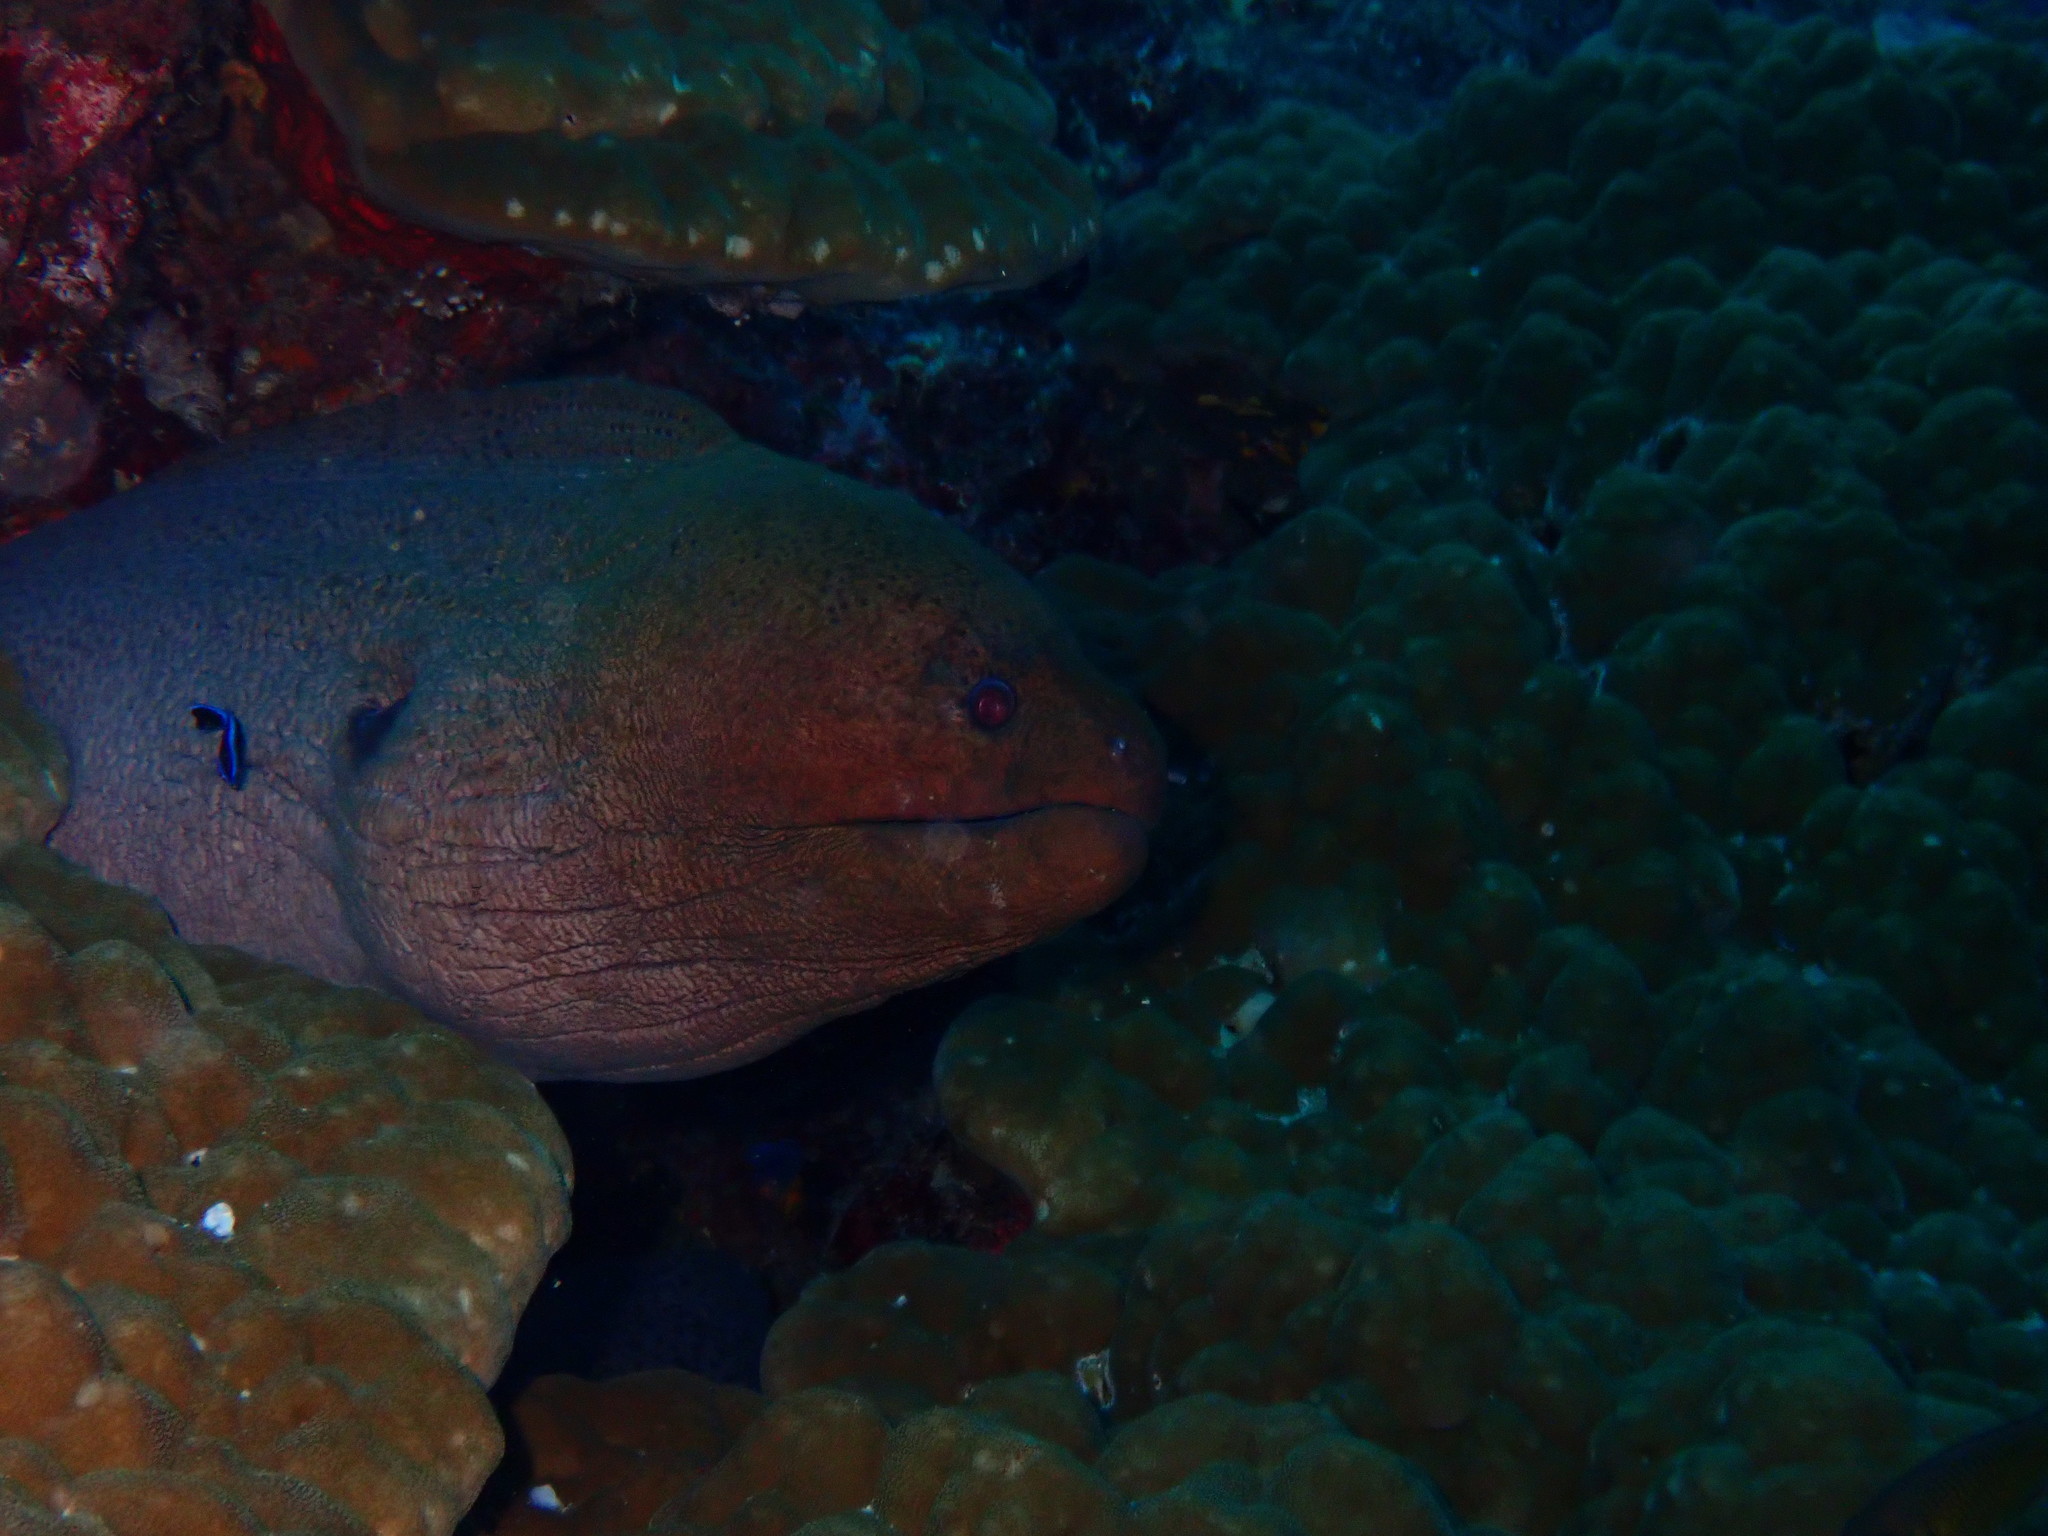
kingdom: Animalia
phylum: Chordata
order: Anguilliformes
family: Muraenidae
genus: Gymnothorax
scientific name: Gymnothorax javanicus
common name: Giant moray
